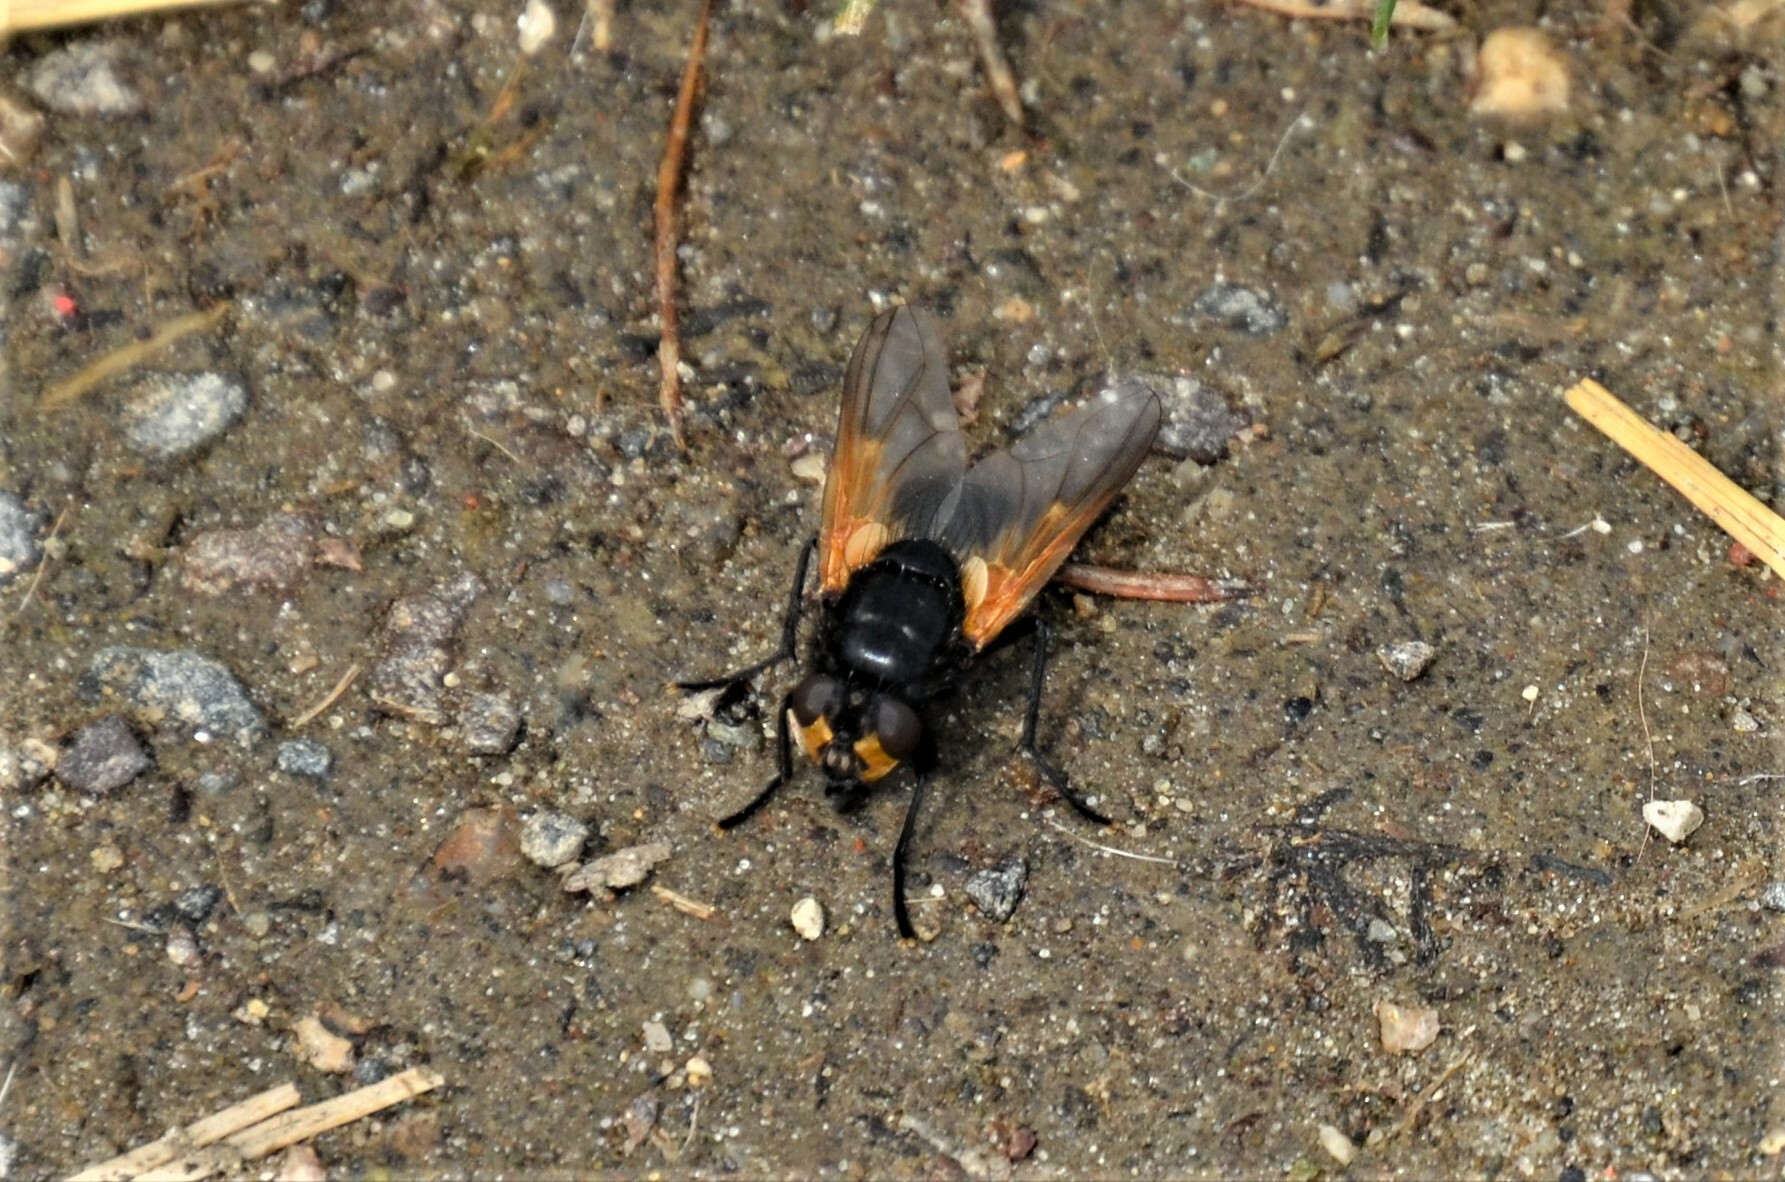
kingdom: Animalia
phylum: Arthropoda
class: Insecta
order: Diptera
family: Muscidae
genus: Mesembrina
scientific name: Mesembrina meridiana
